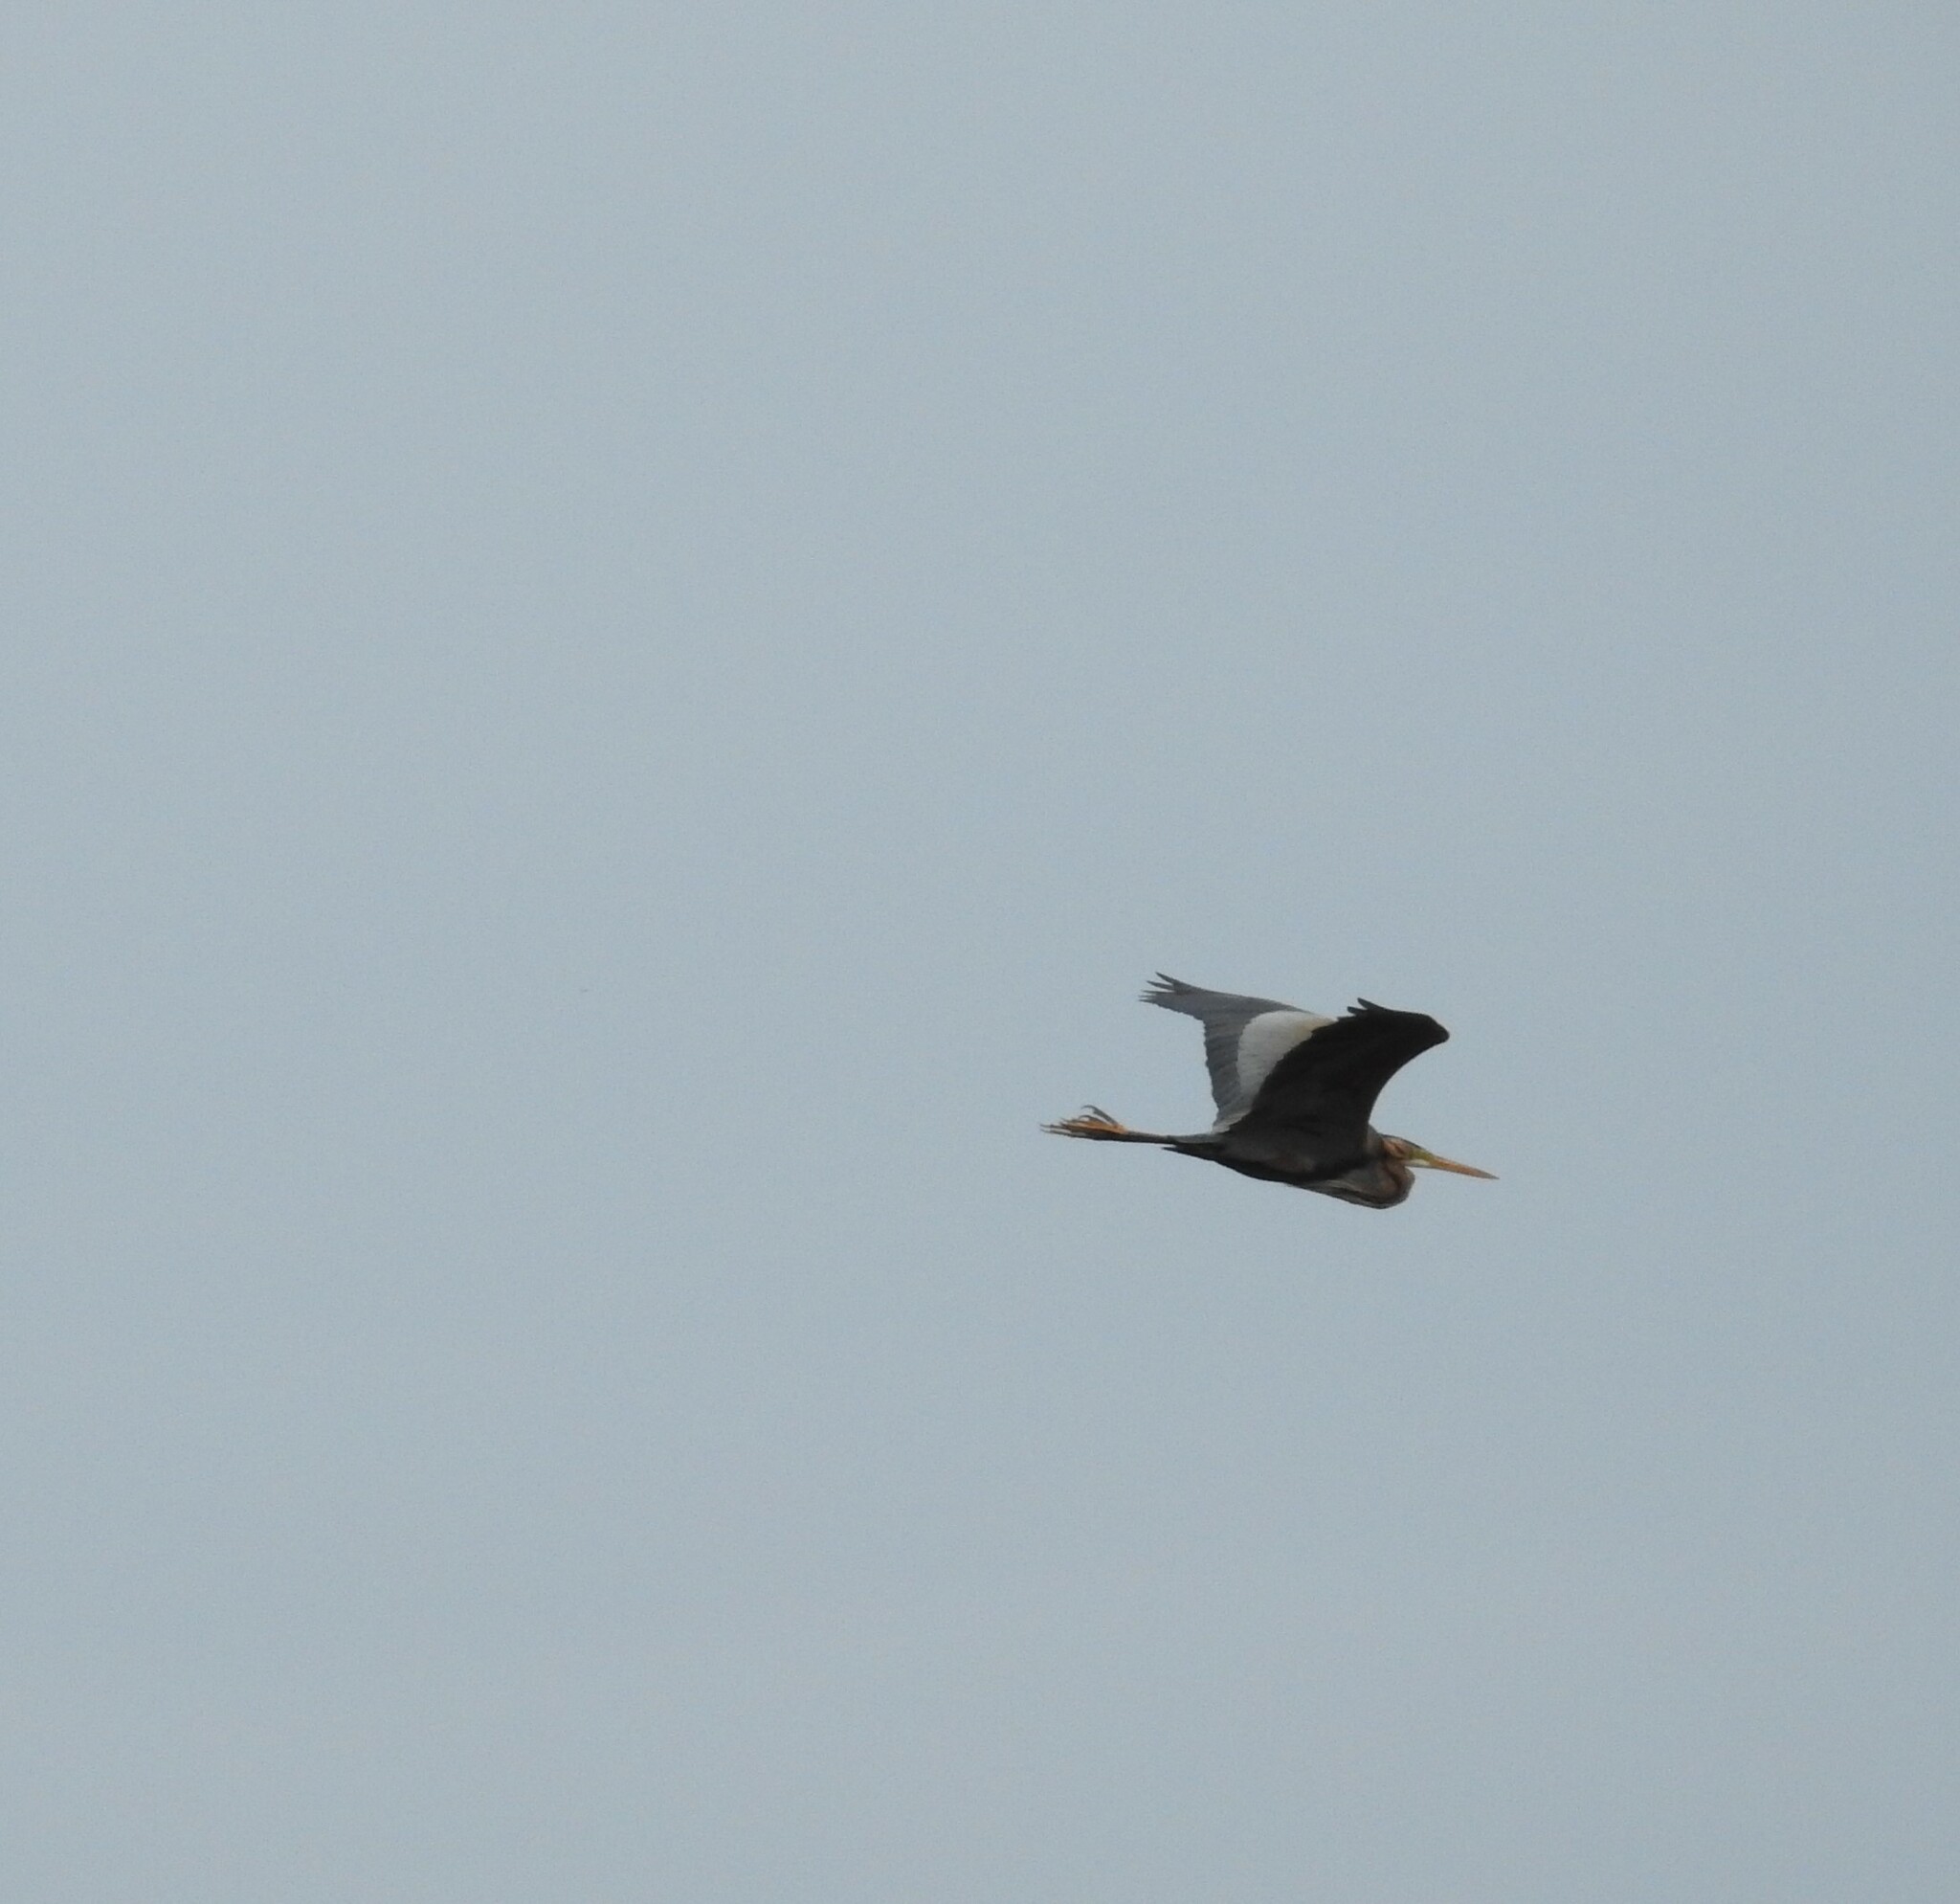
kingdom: Animalia
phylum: Chordata
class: Aves
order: Pelecaniformes
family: Ardeidae
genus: Ardea
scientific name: Ardea purpurea
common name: Purple heron
